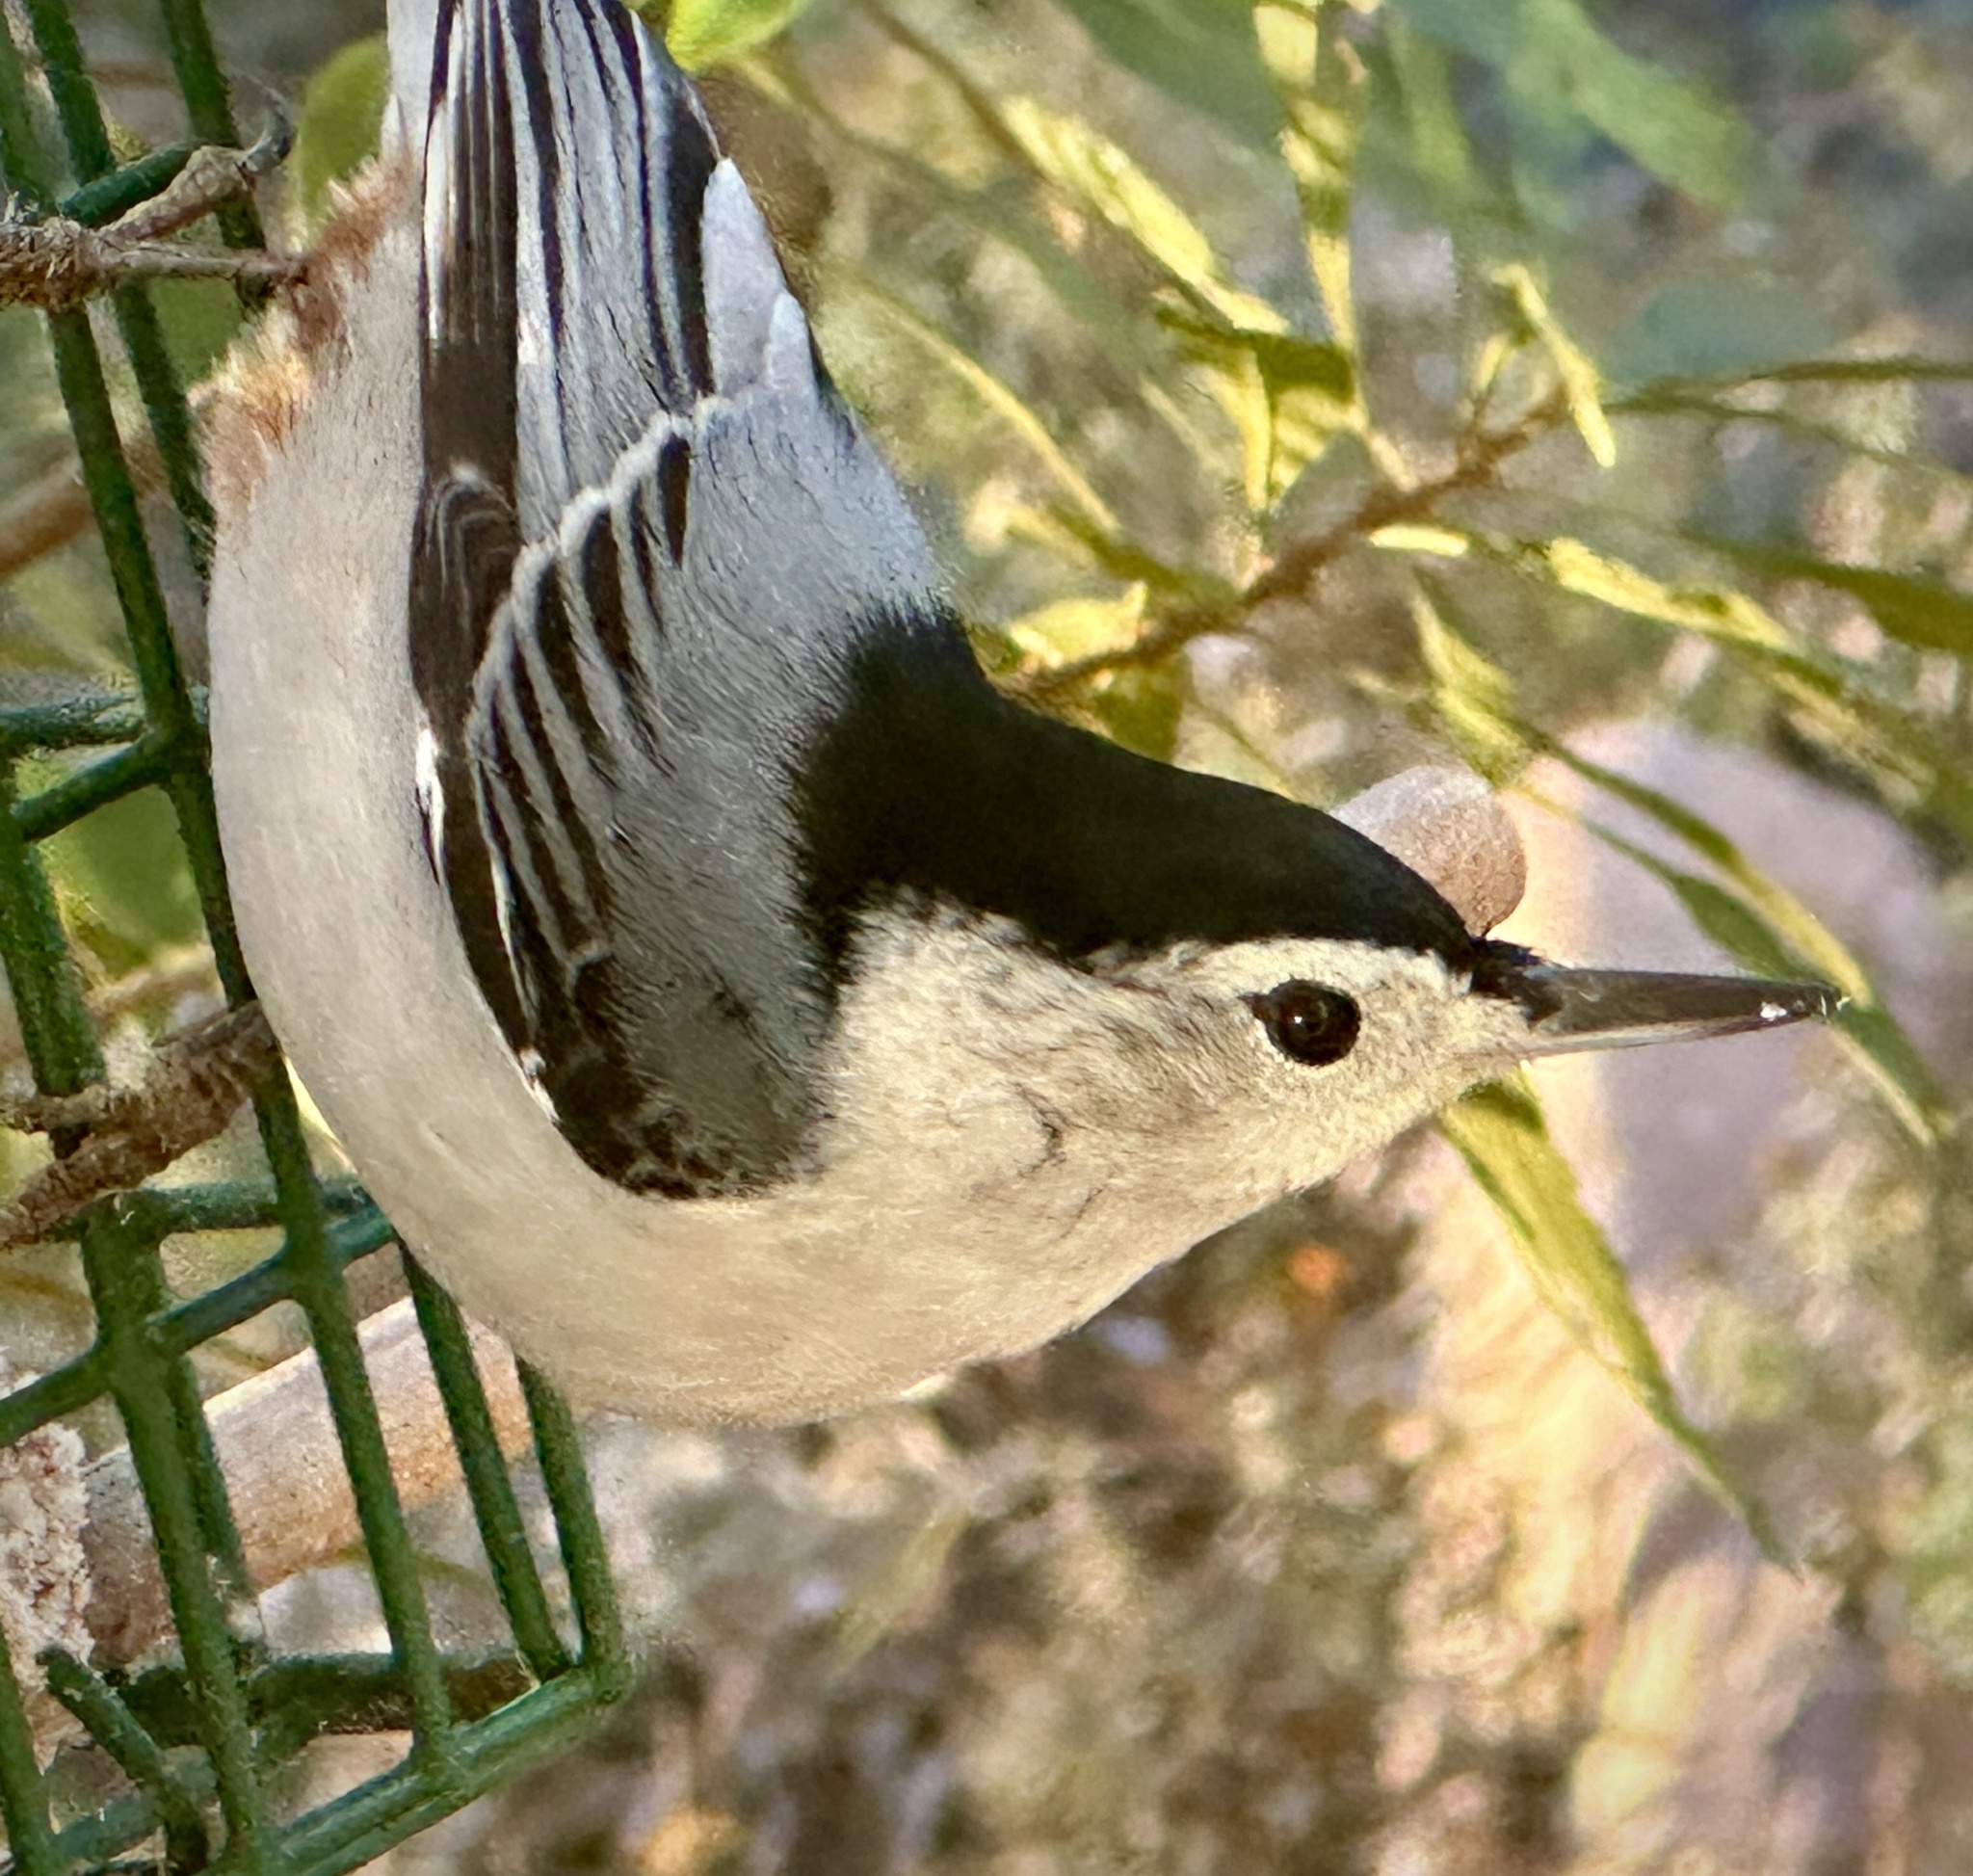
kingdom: Animalia
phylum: Chordata
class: Aves
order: Passeriformes
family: Sittidae
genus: Sitta
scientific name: Sitta carolinensis
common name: White-breasted nuthatch
